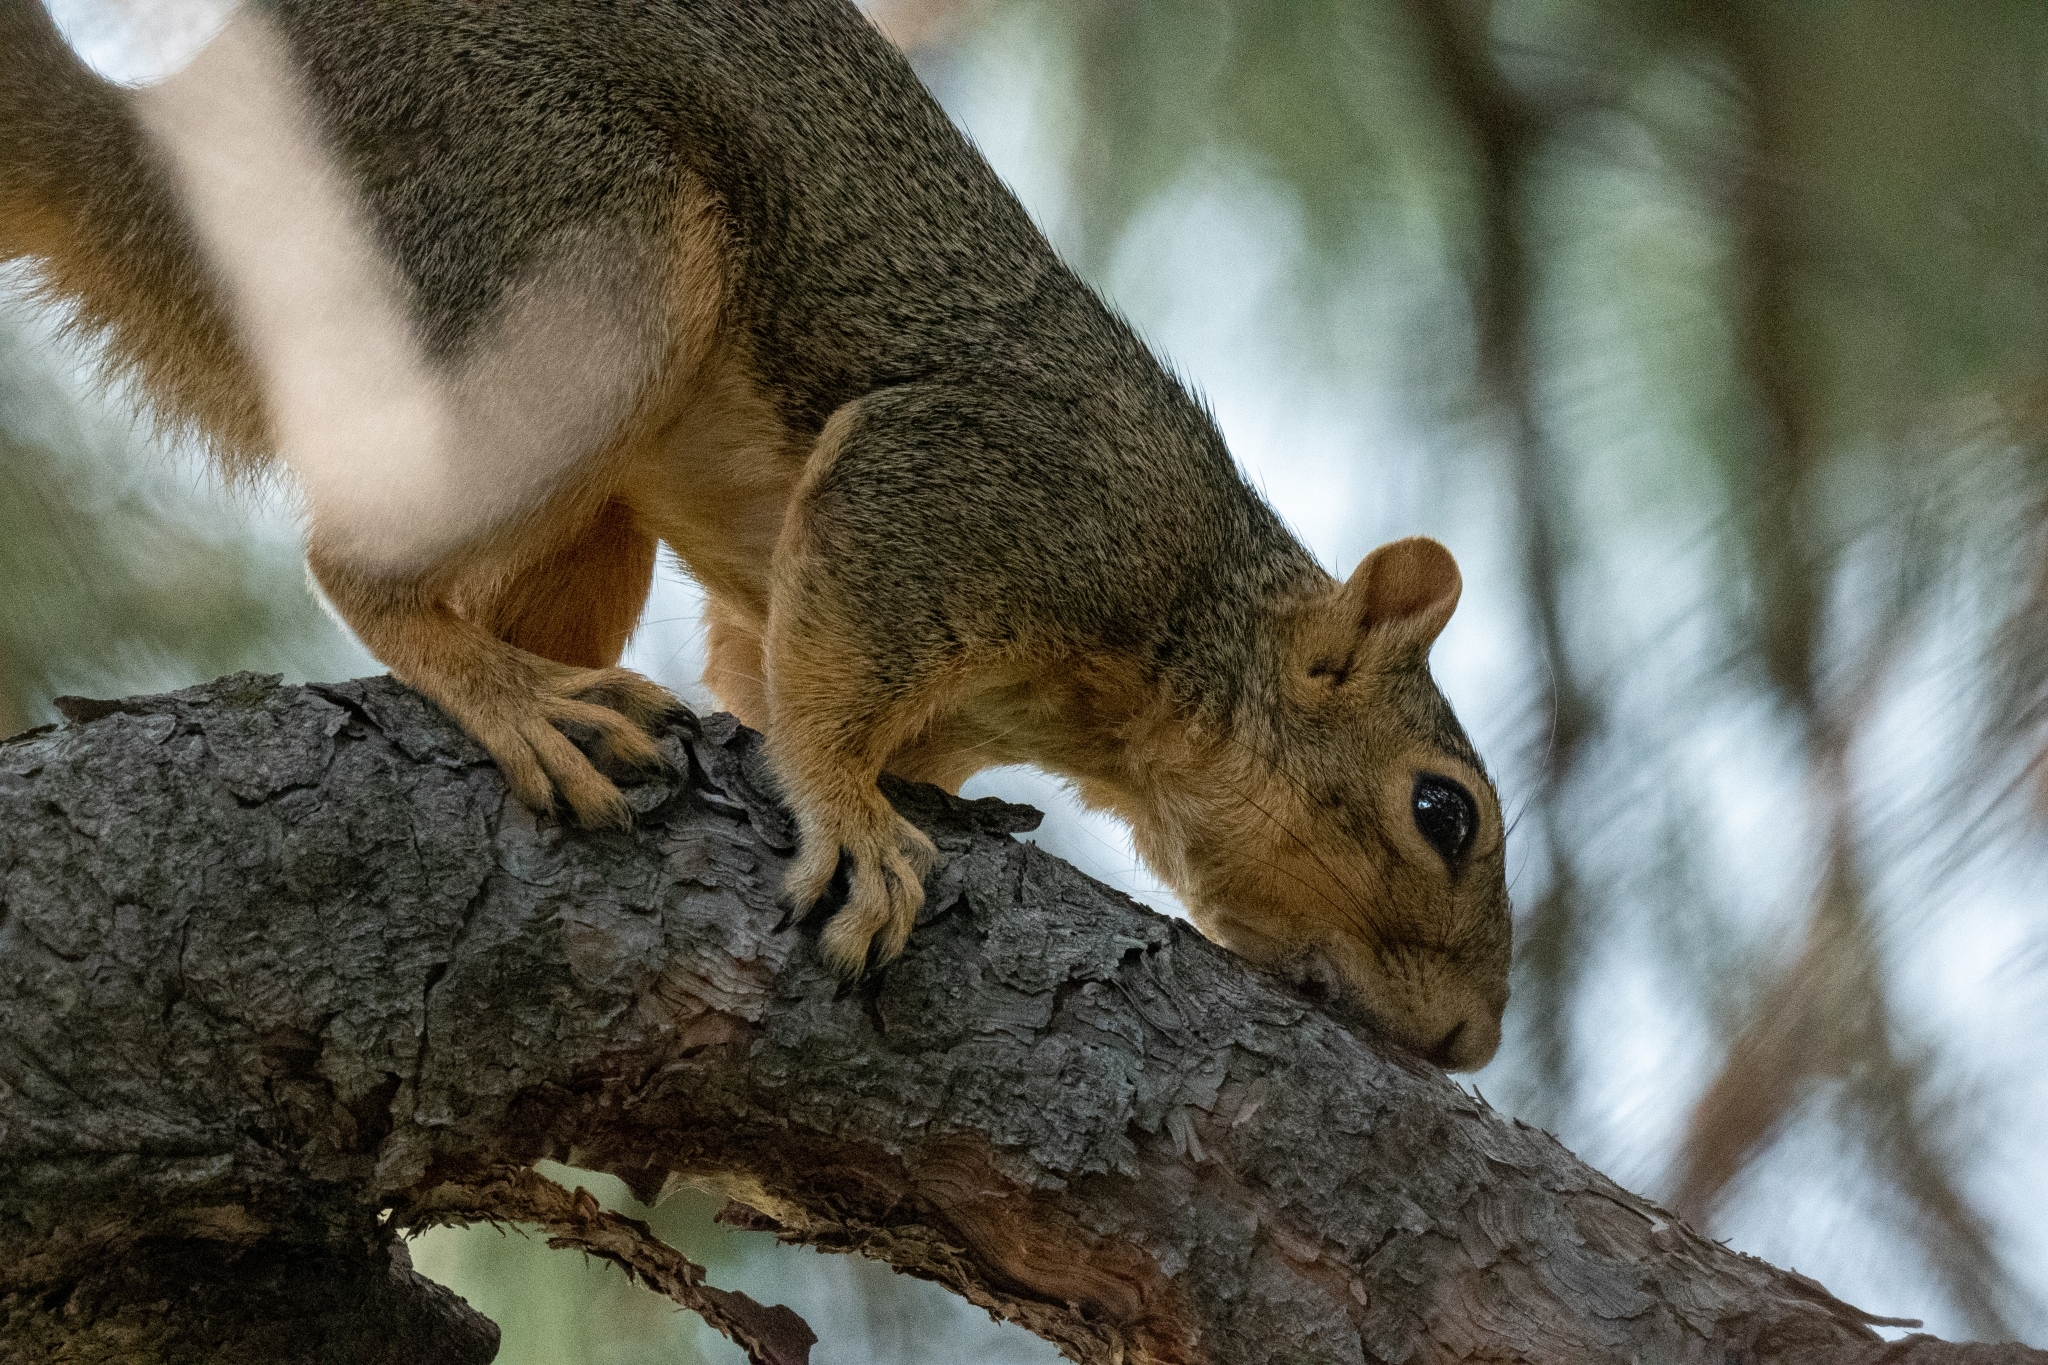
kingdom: Animalia
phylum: Chordata
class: Mammalia
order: Rodentia
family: Sciuridae
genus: Sciurus
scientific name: Sciurus niger
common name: Fox squirrel
